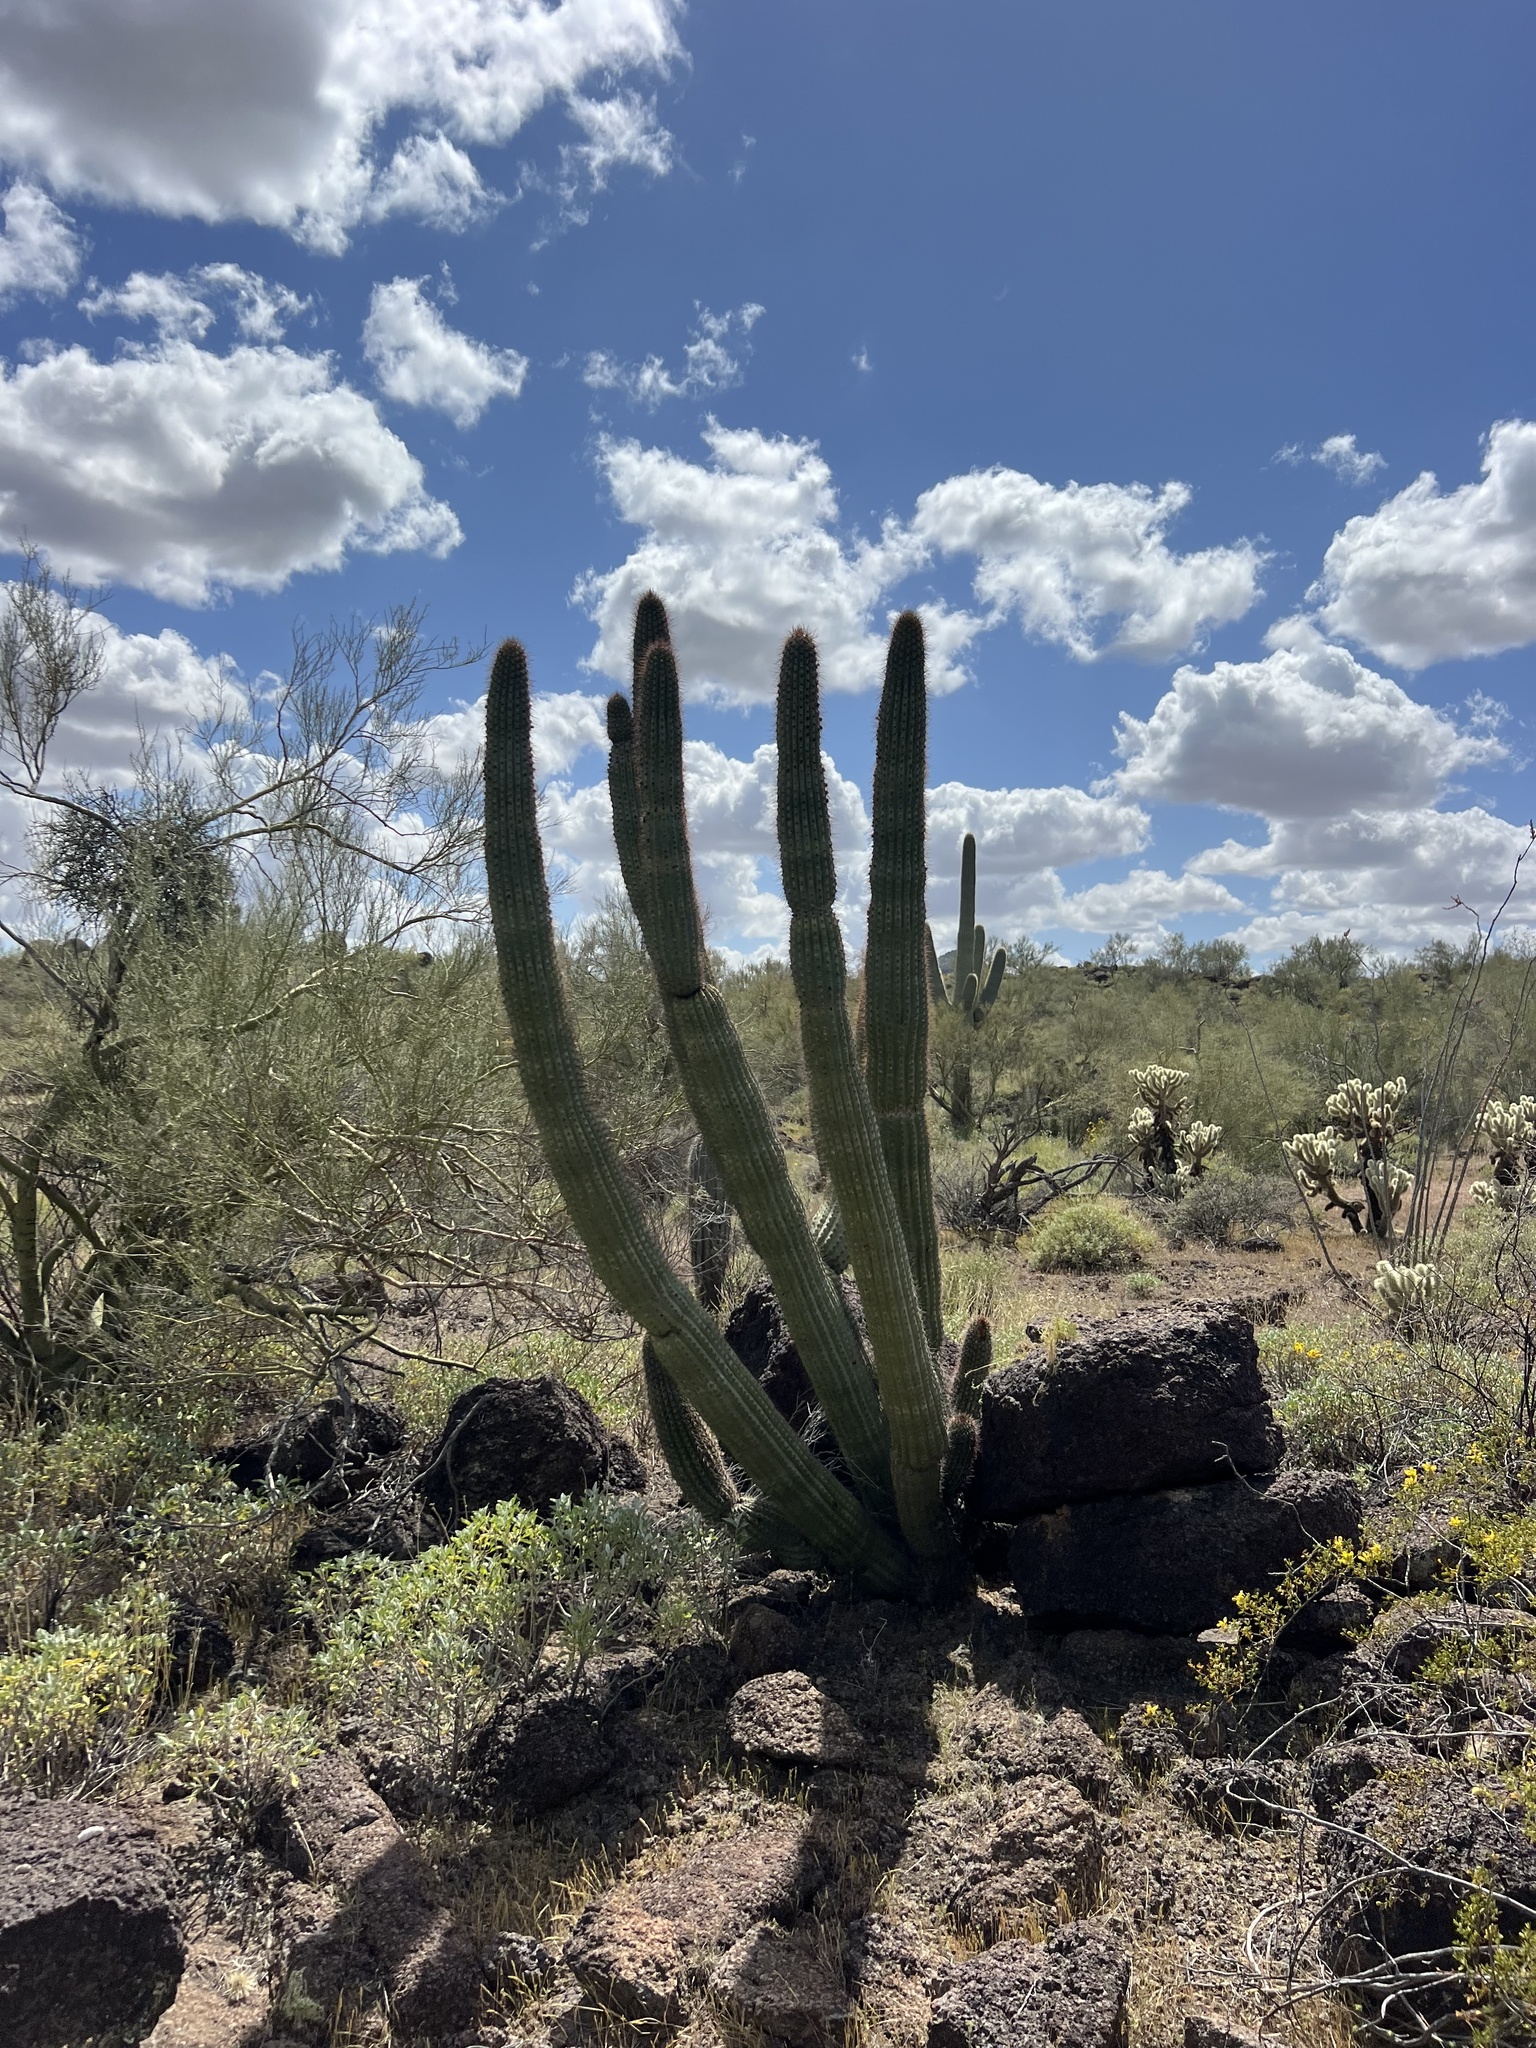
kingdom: Plantae
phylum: Tracheophyta
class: Magnoliopsida
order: Caryophyllales
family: Cactaceae
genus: Stenocereus
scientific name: Stenocereus thurberi
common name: Organ pipe cactus
